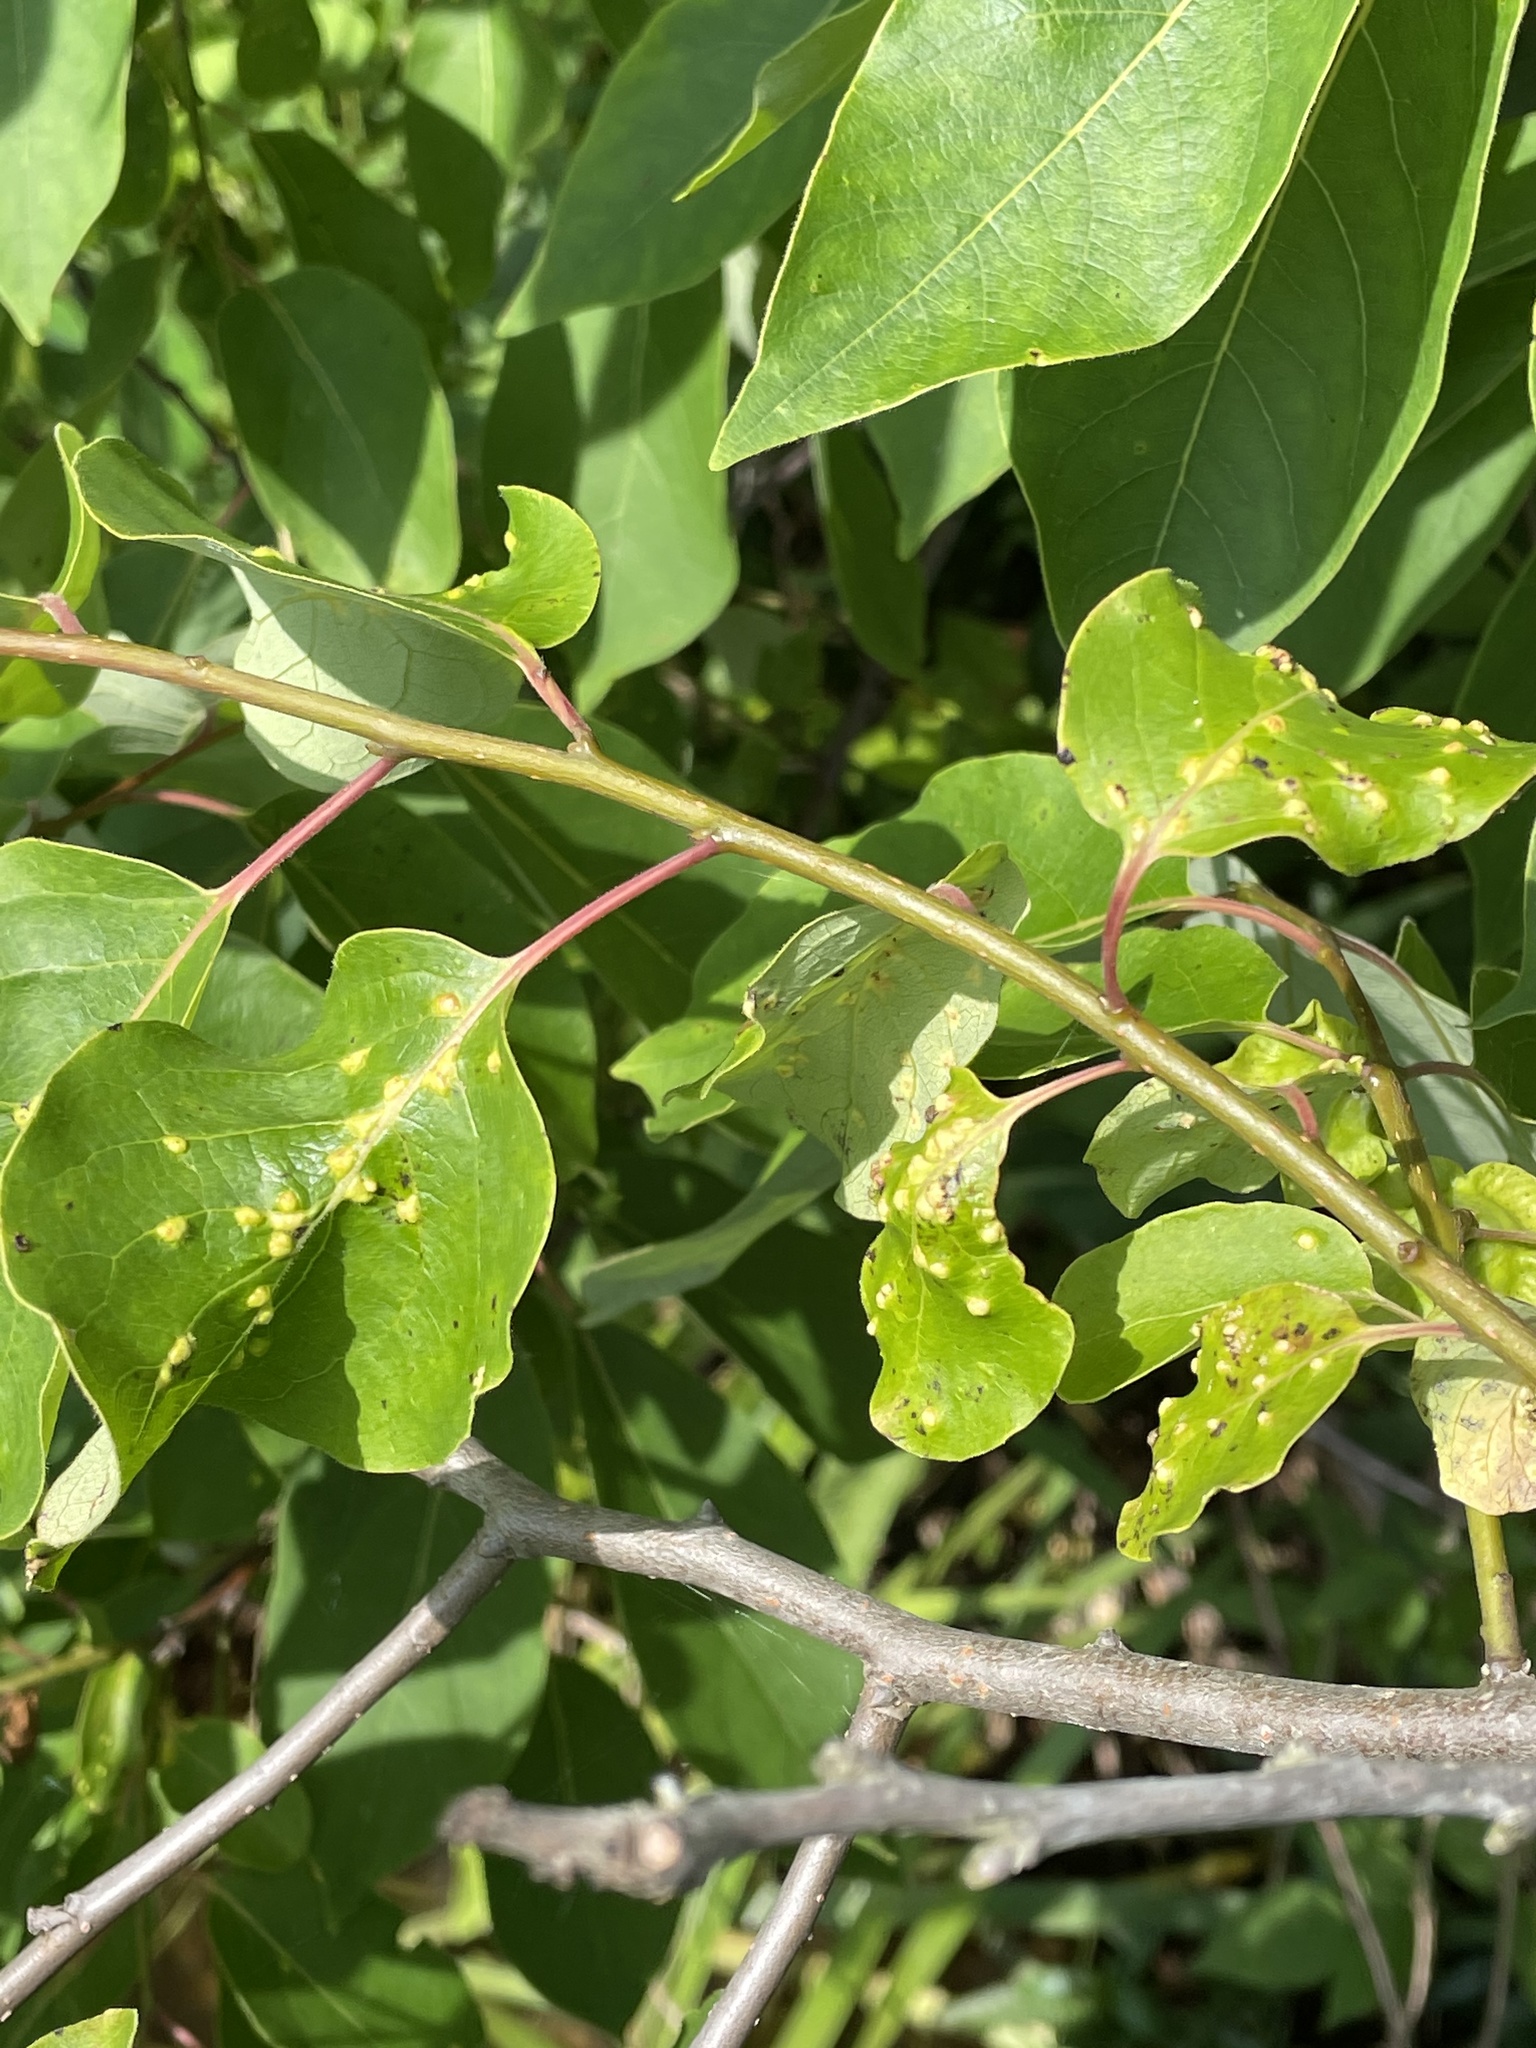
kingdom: Animalia
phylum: Arthropoda
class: Arachnida
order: Trombidiformes
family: Eriophyidae
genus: Aceria
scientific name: Aceria
